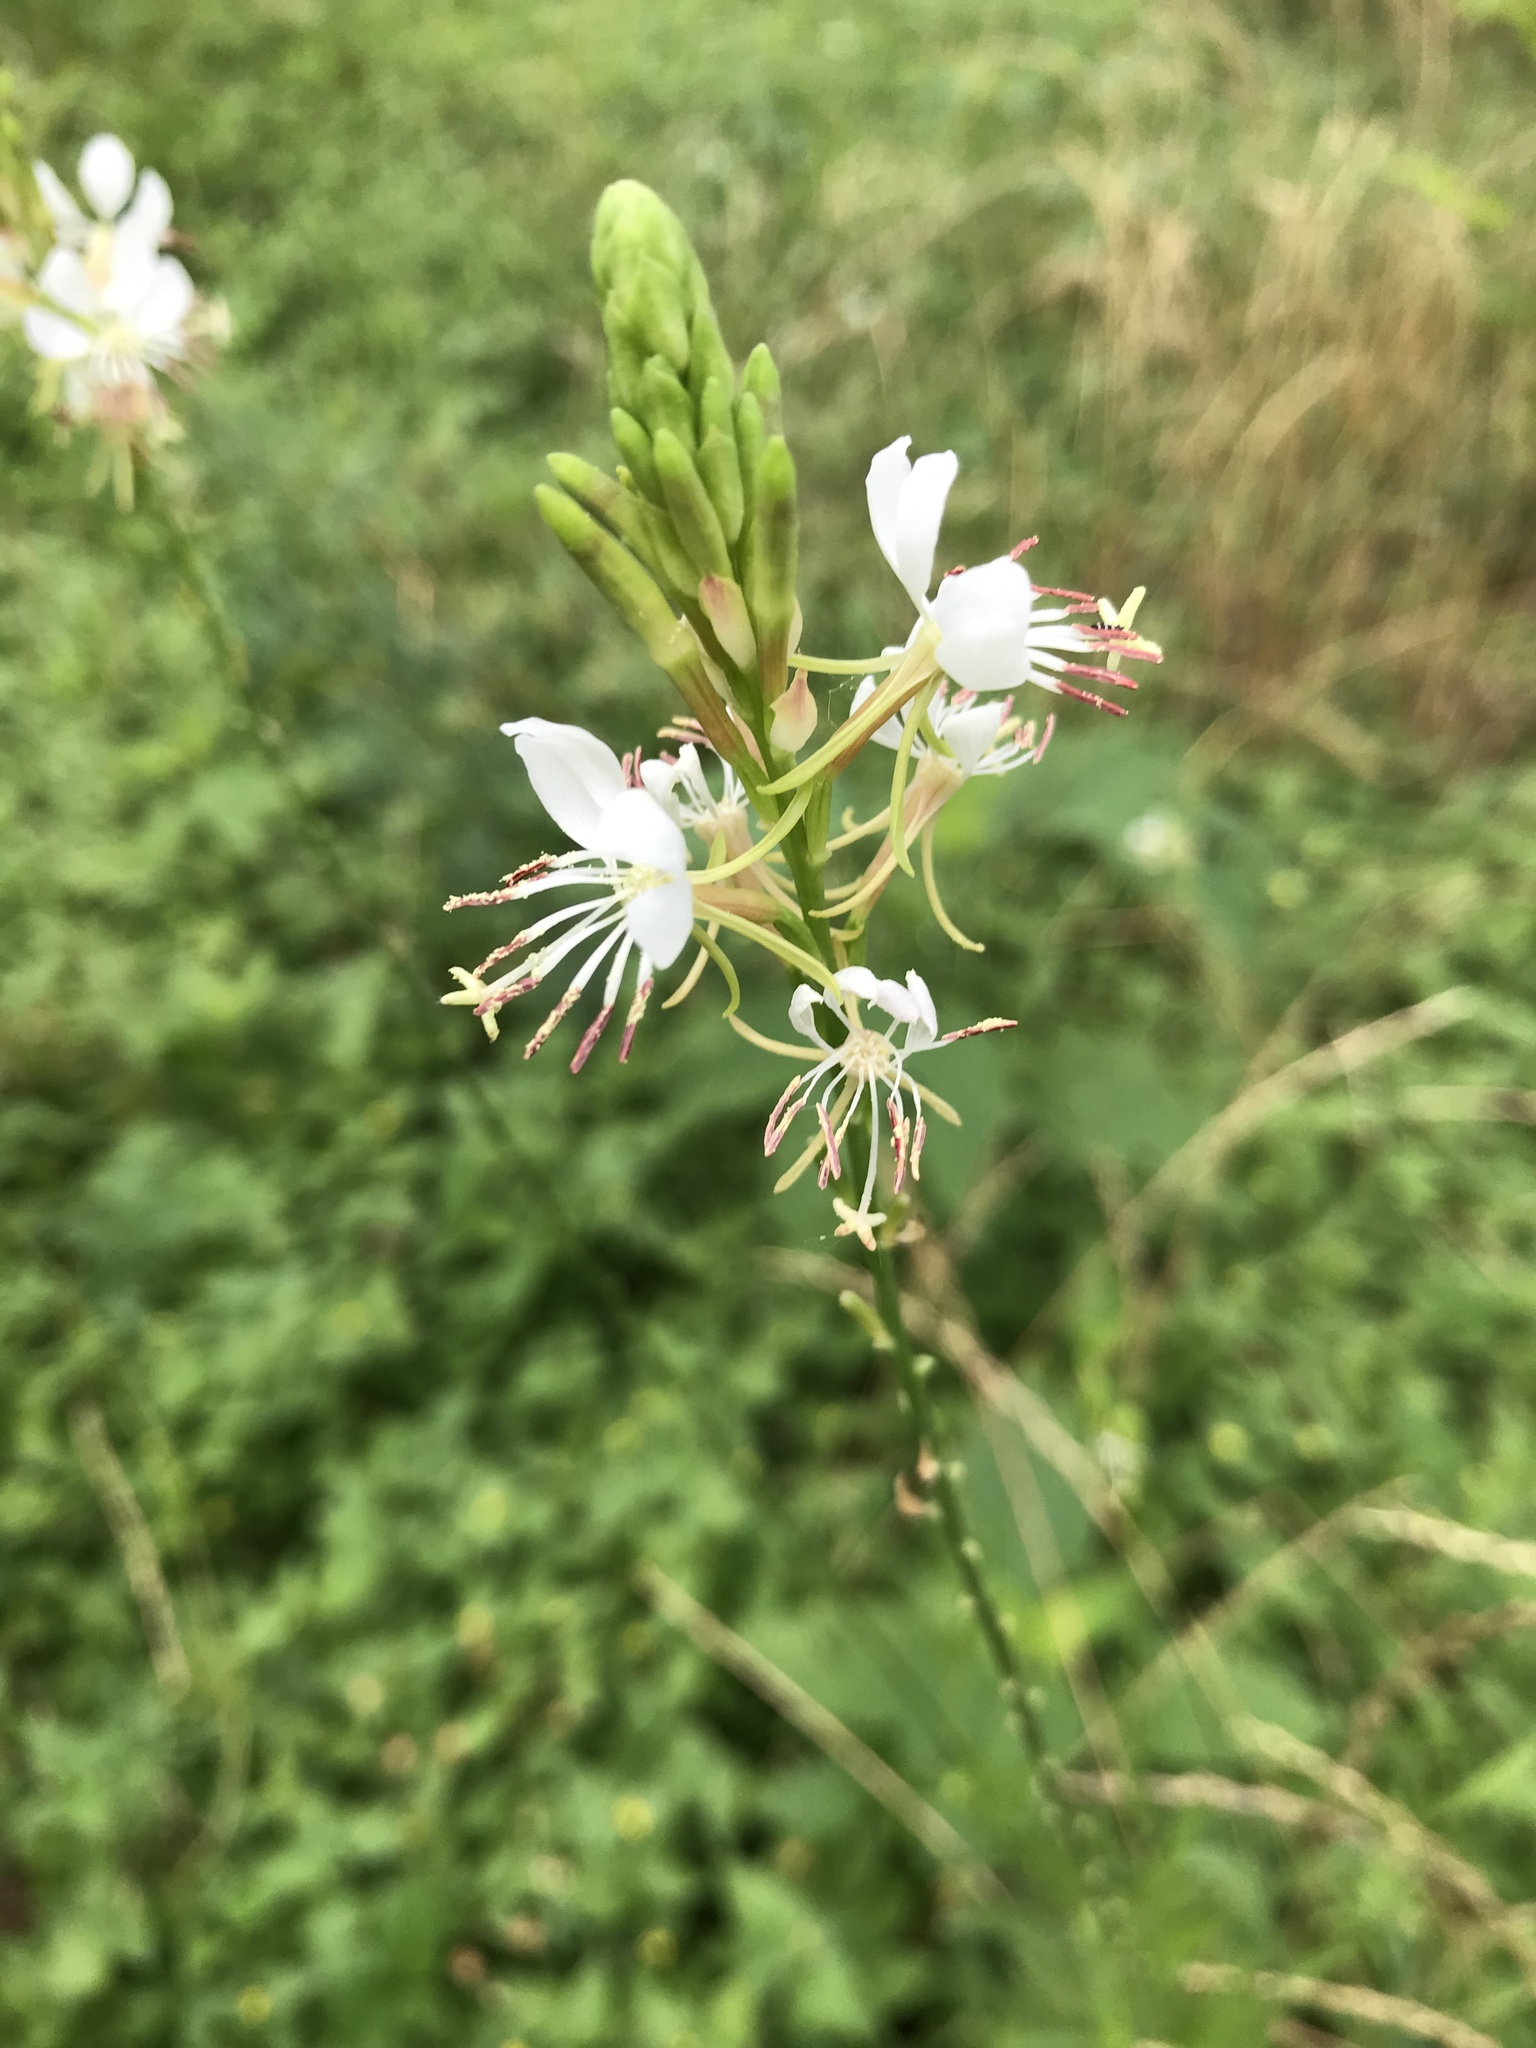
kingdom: Plantae
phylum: Tracheophyta
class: Magnoliopsida
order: Myrtales
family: Onagraceae
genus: Oenothera
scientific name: Oenothera suffulta
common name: Kisses
